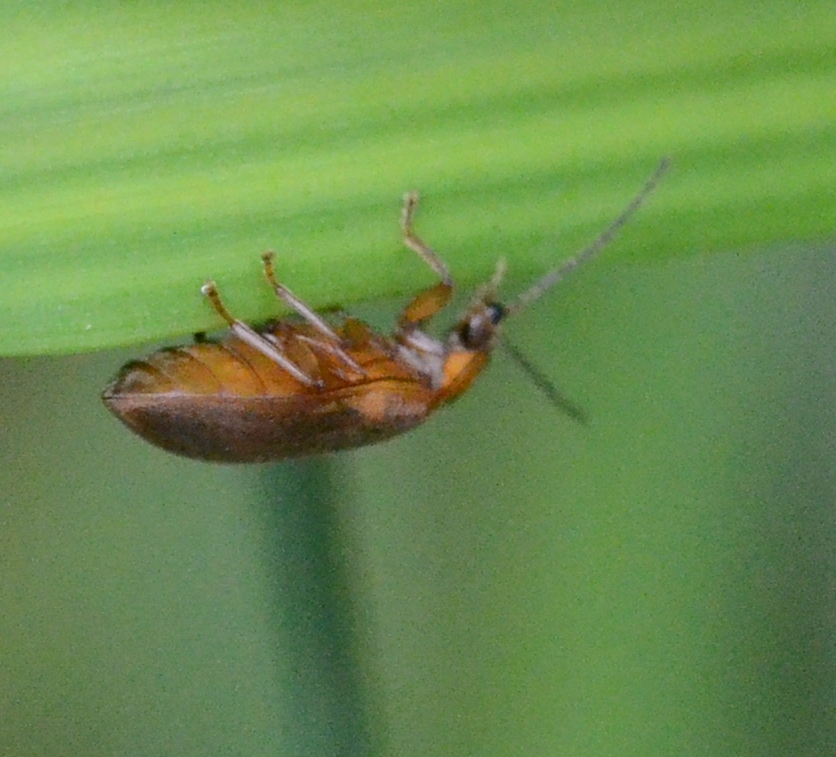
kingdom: Animalia
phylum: Arthropoda
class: Insecta
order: Coleoptera
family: Scirtidae
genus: Microcara
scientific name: Microcara testacea
